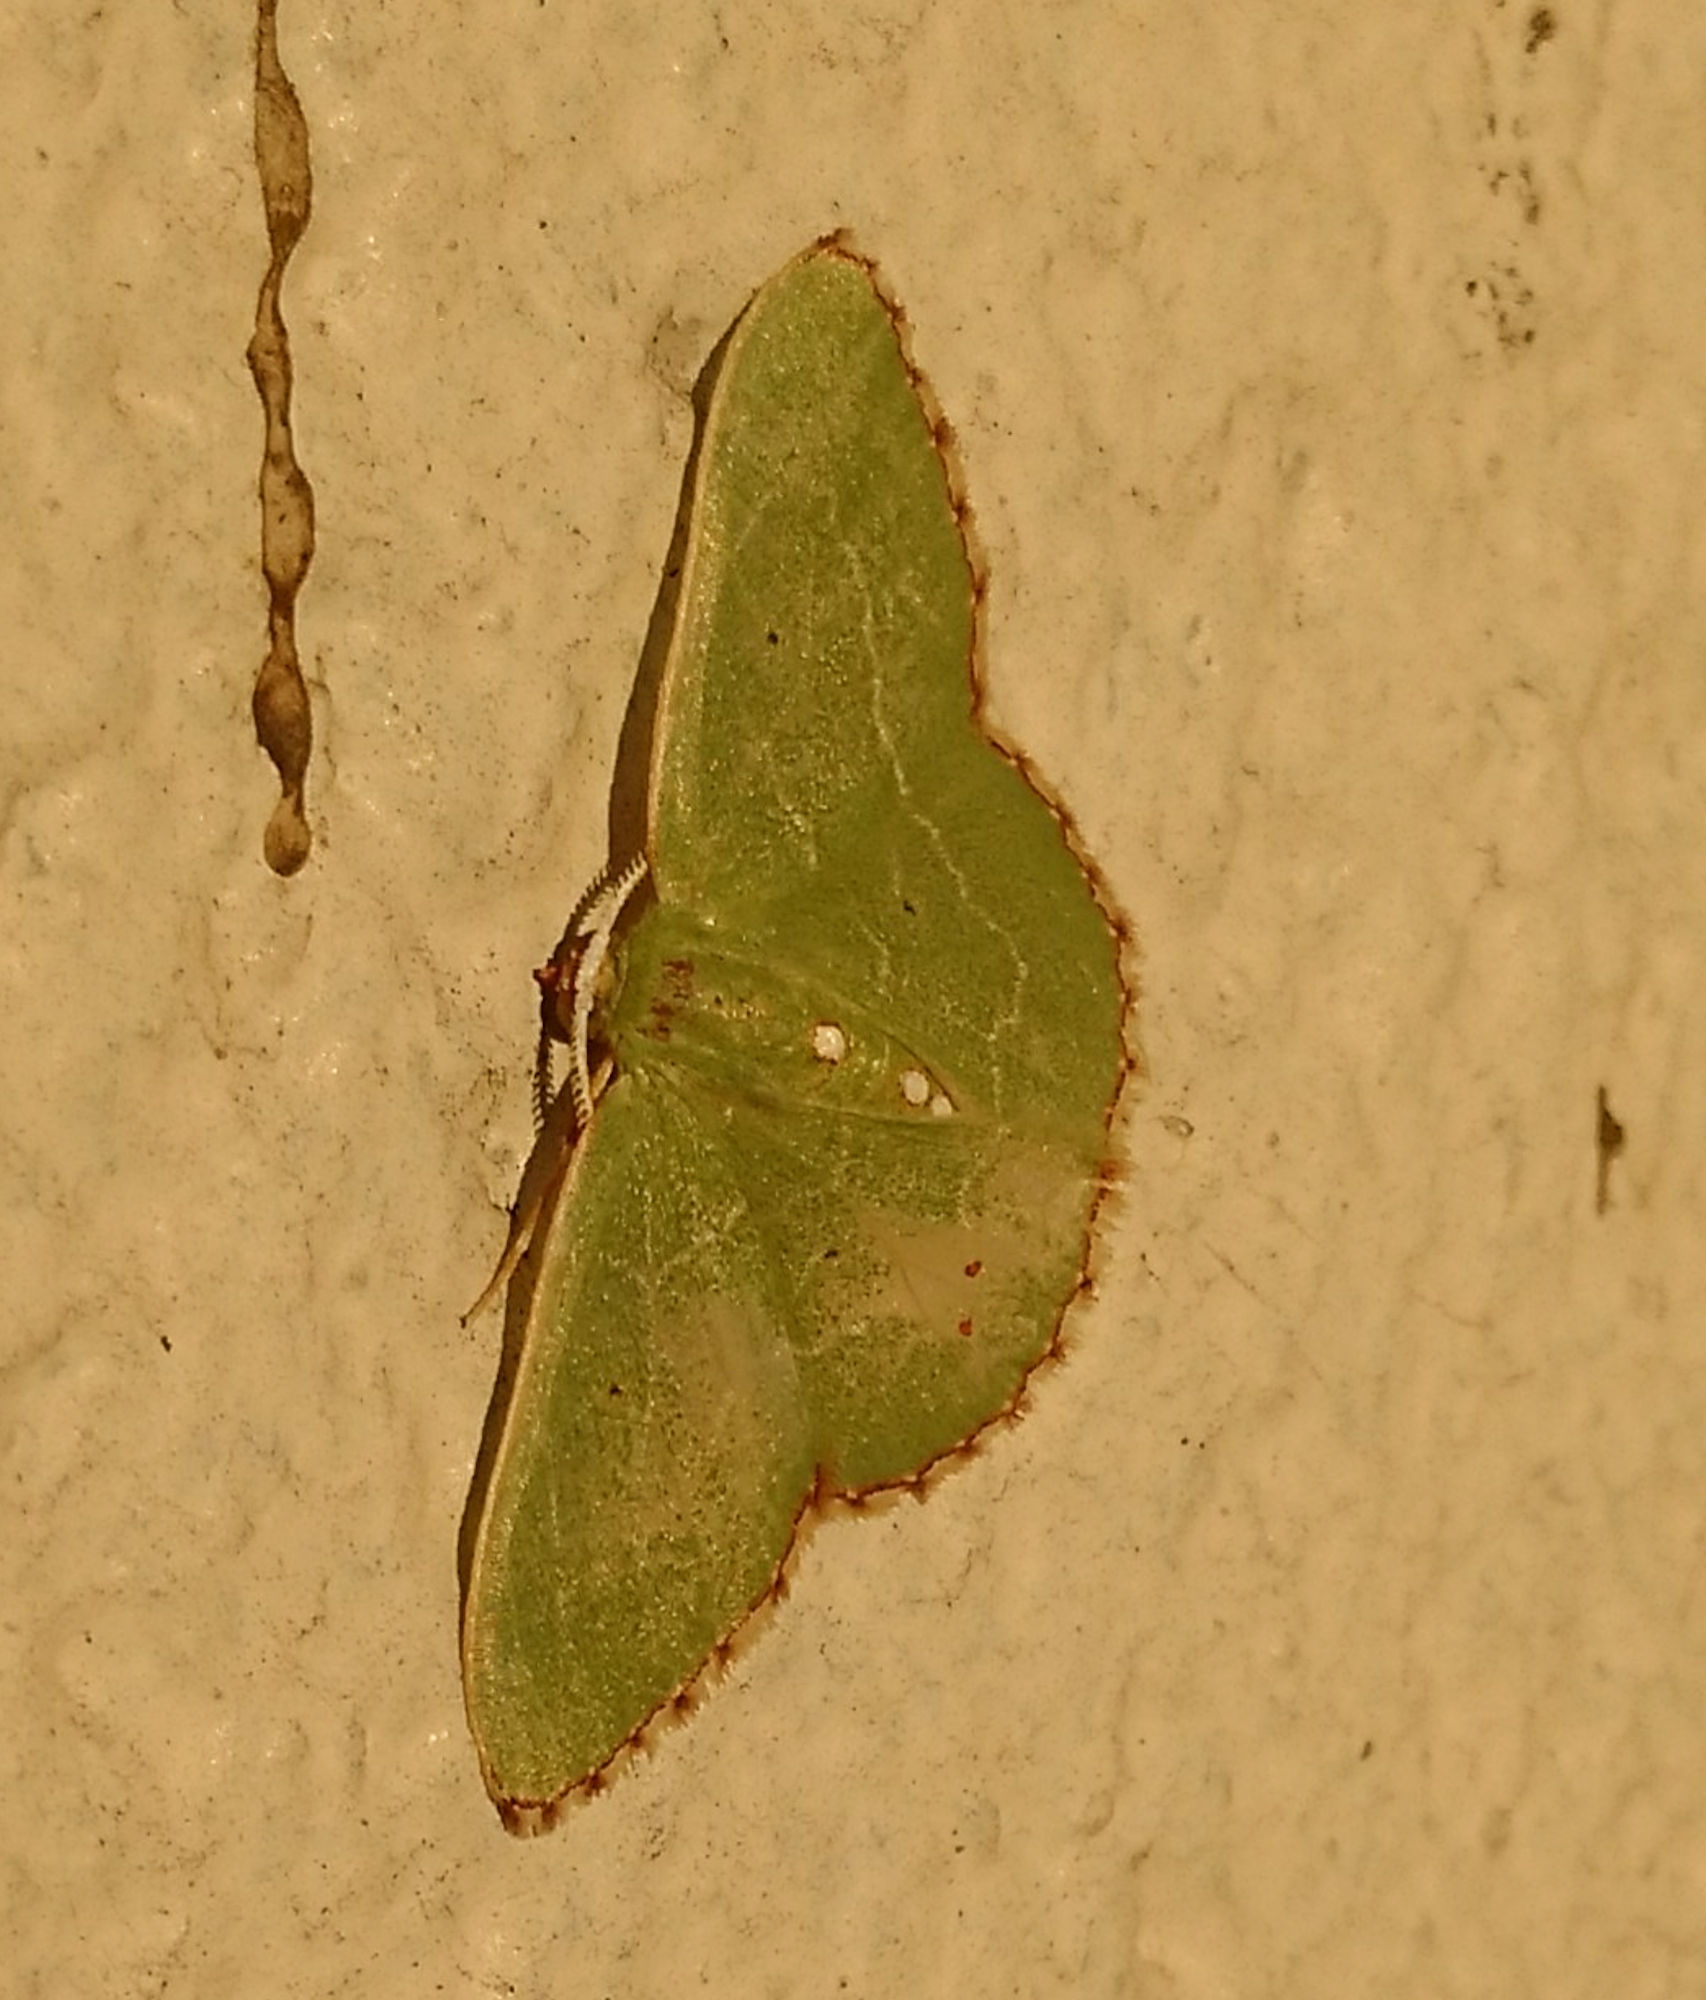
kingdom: Animalia
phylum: Arthropoda
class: Insecta
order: Lepidoptera
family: Geometridae
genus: Nemoria
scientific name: Nemoria lixaria
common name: Red-bordered emerald
